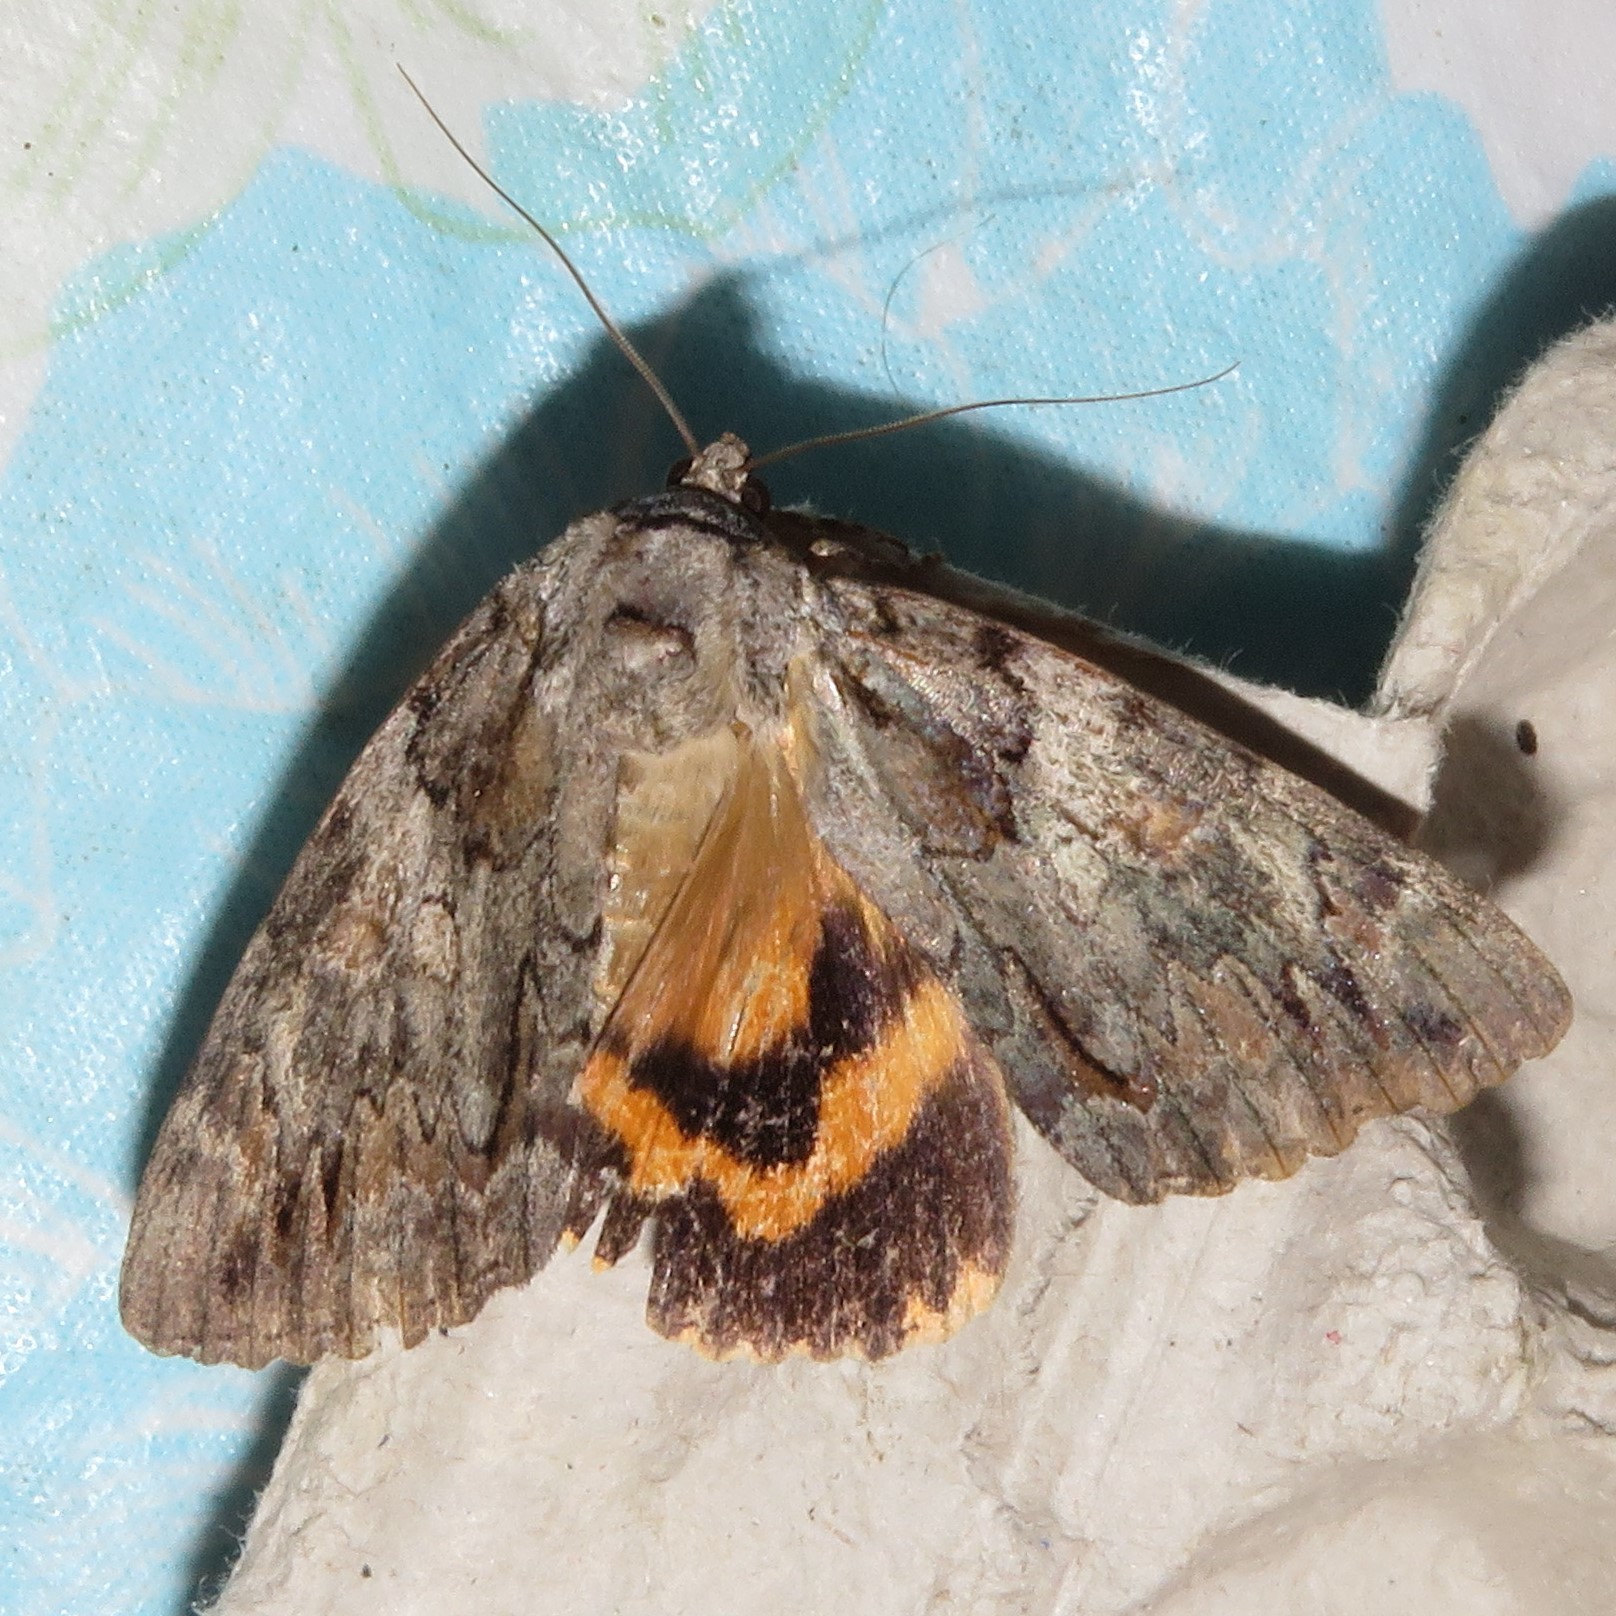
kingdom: Animalia
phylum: Arthropoda
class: Insecta
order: Lepidoptera
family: Erebidae
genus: Catocala
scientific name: Catocala neogama
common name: Bride underwing
